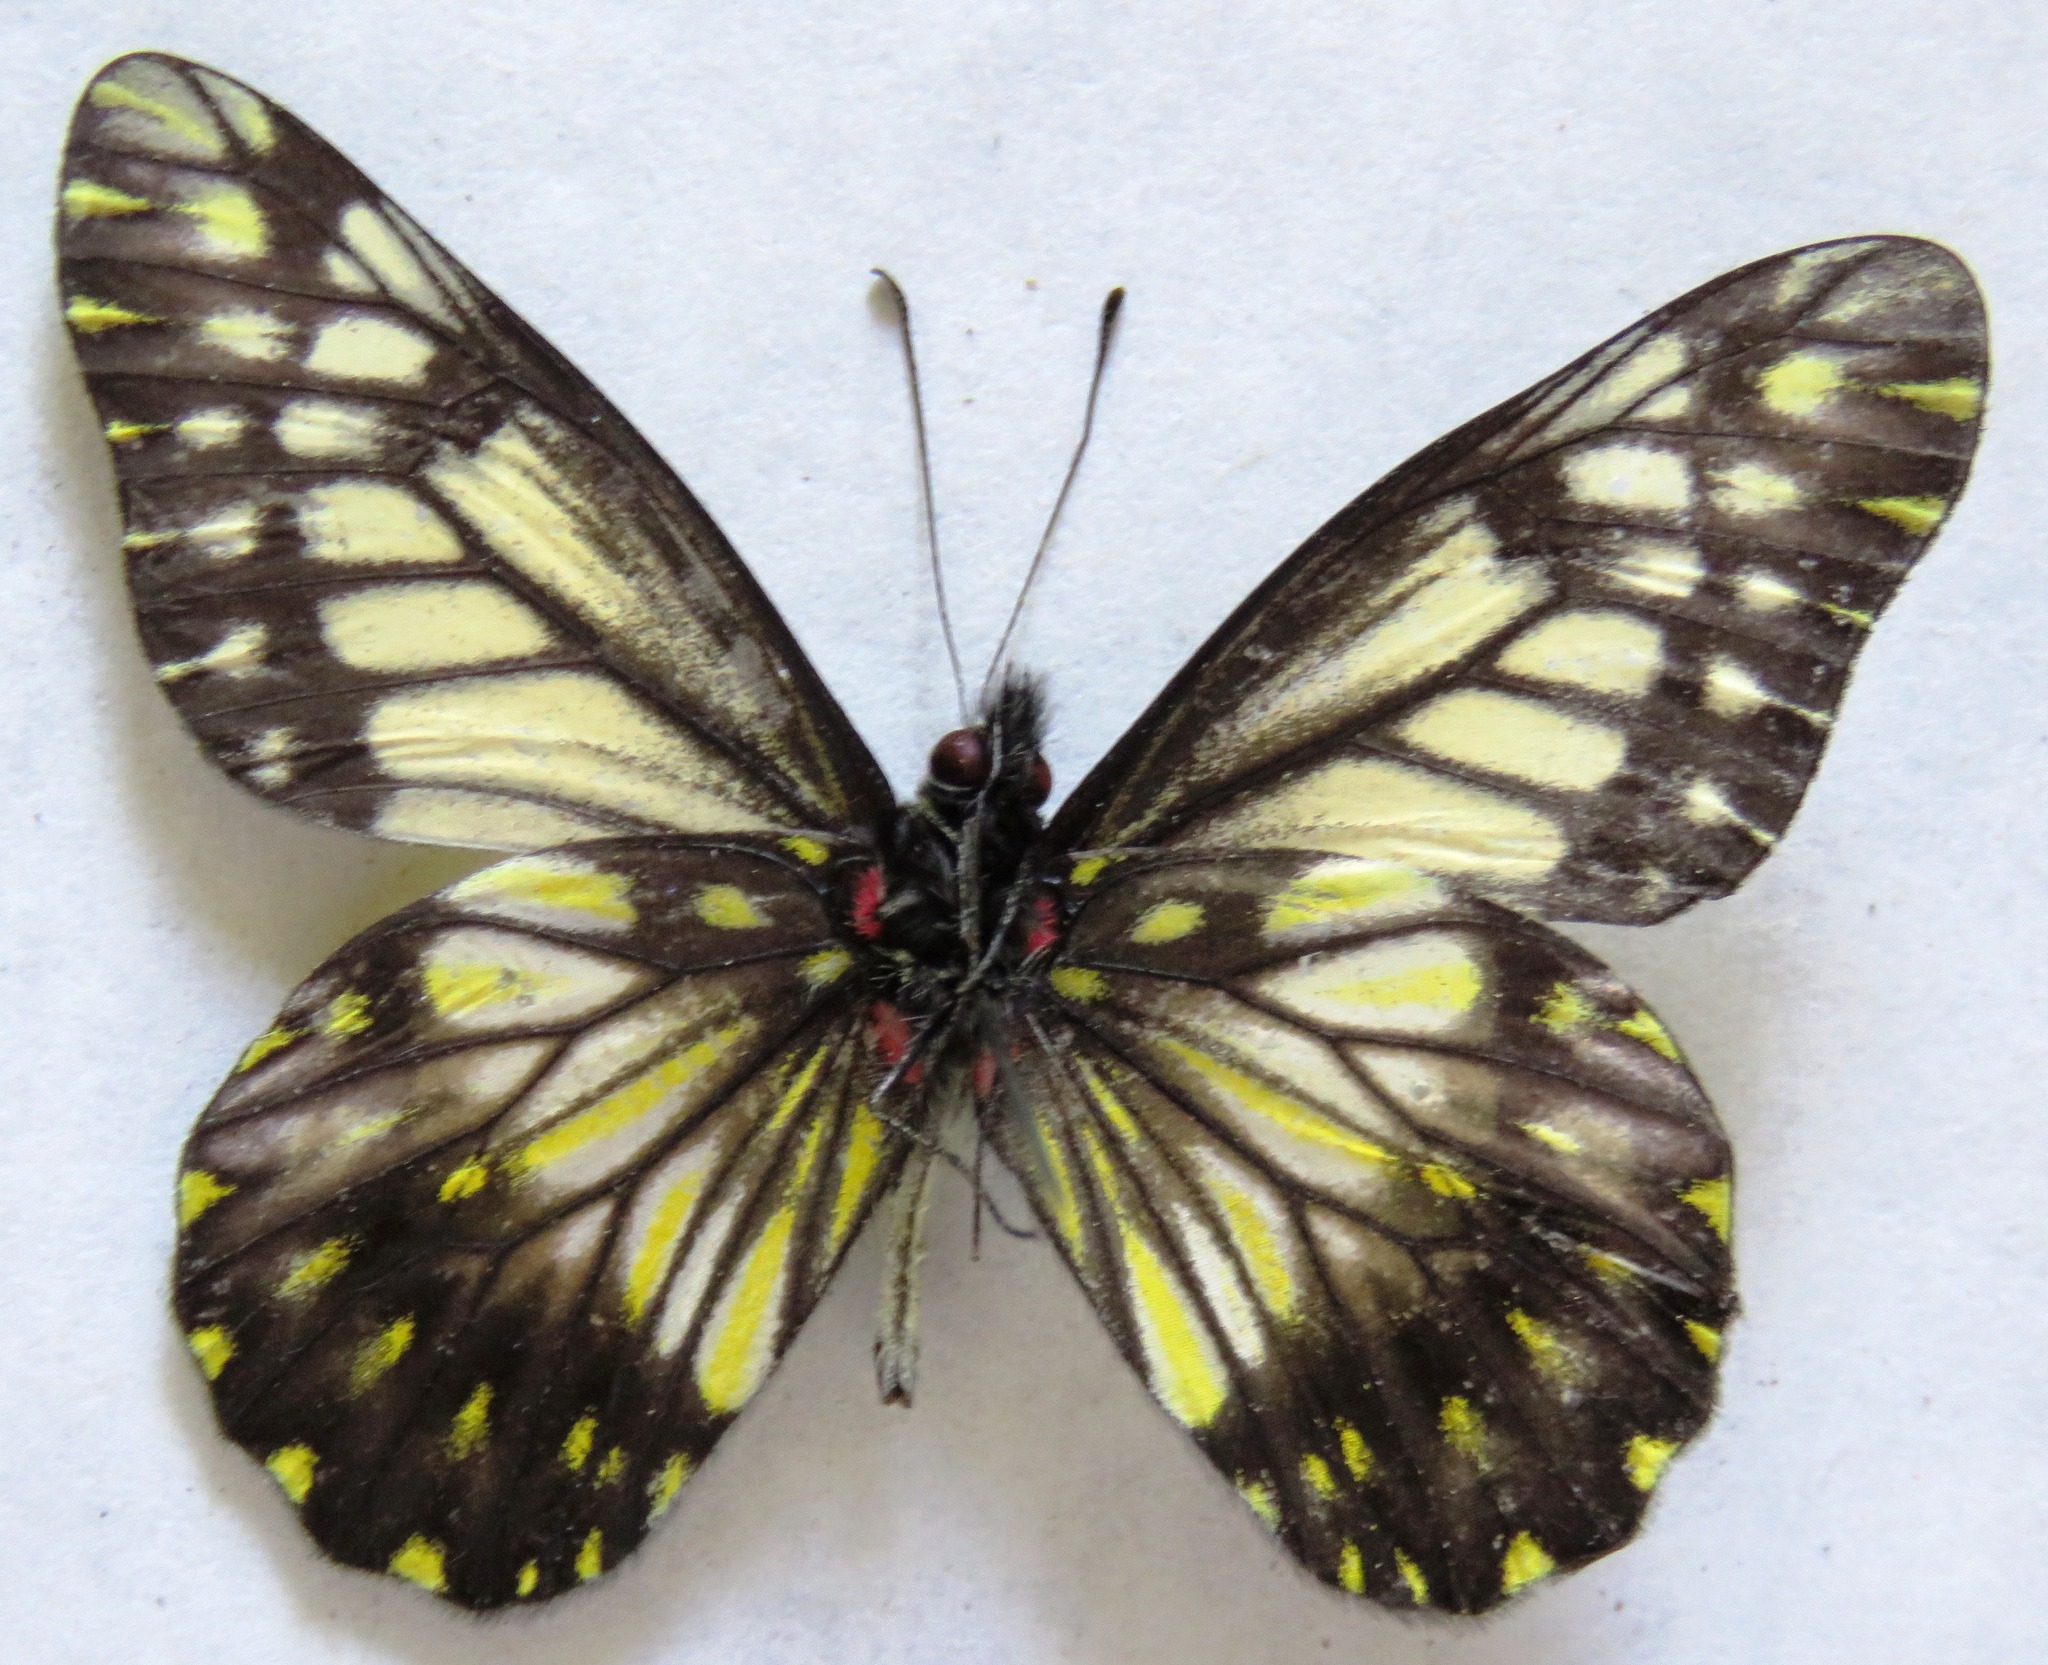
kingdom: Animalia
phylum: Arthropoda
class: Insecta
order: Lepidoptera
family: Pieridae
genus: Archonias
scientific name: Archonias nimbice
